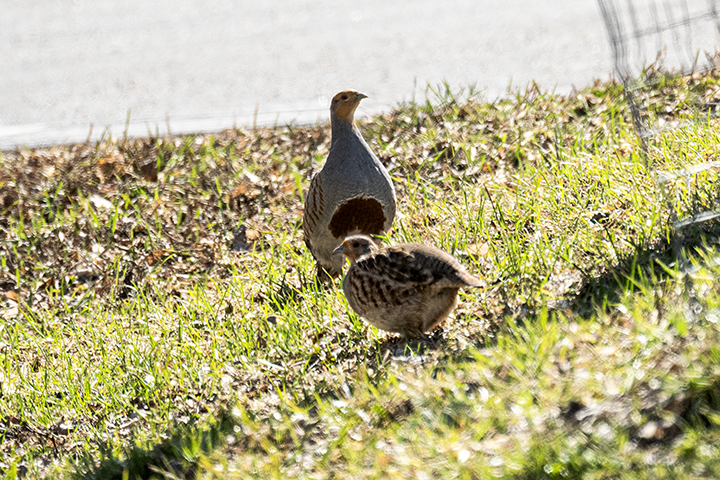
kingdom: Animalia
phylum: Chordata
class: Aves
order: Galliformes
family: Phasianidae
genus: Perdix
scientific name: Perdix perdix
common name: Grey partridge
